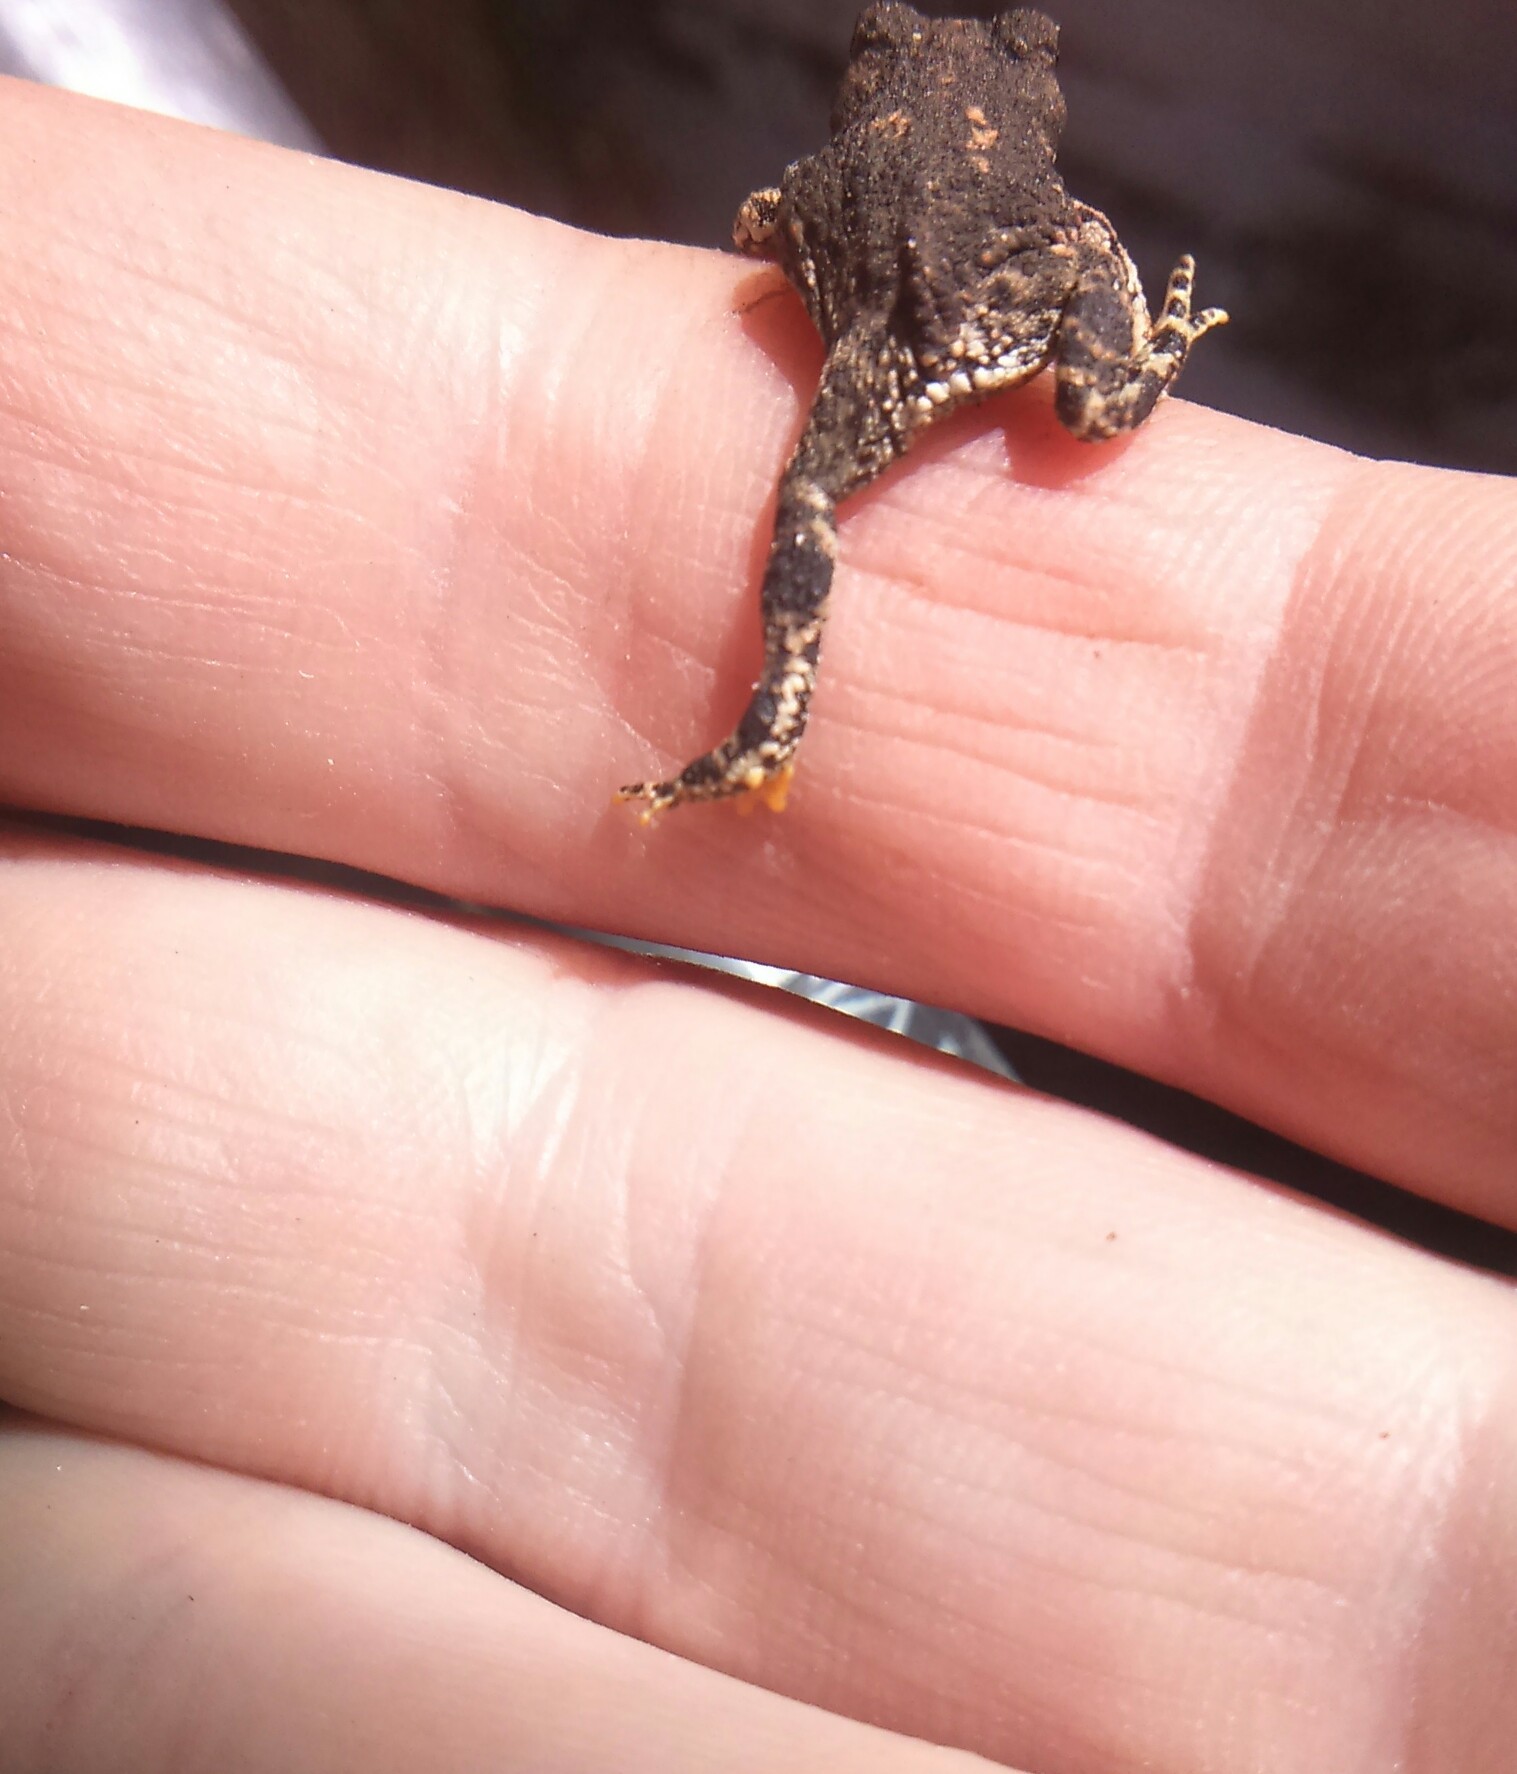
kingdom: Animalia
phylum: Chordata
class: Amphibia
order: Anura
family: Bufonidae
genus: Rhinella
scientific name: Rhinella spinulosa
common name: Warty toad
